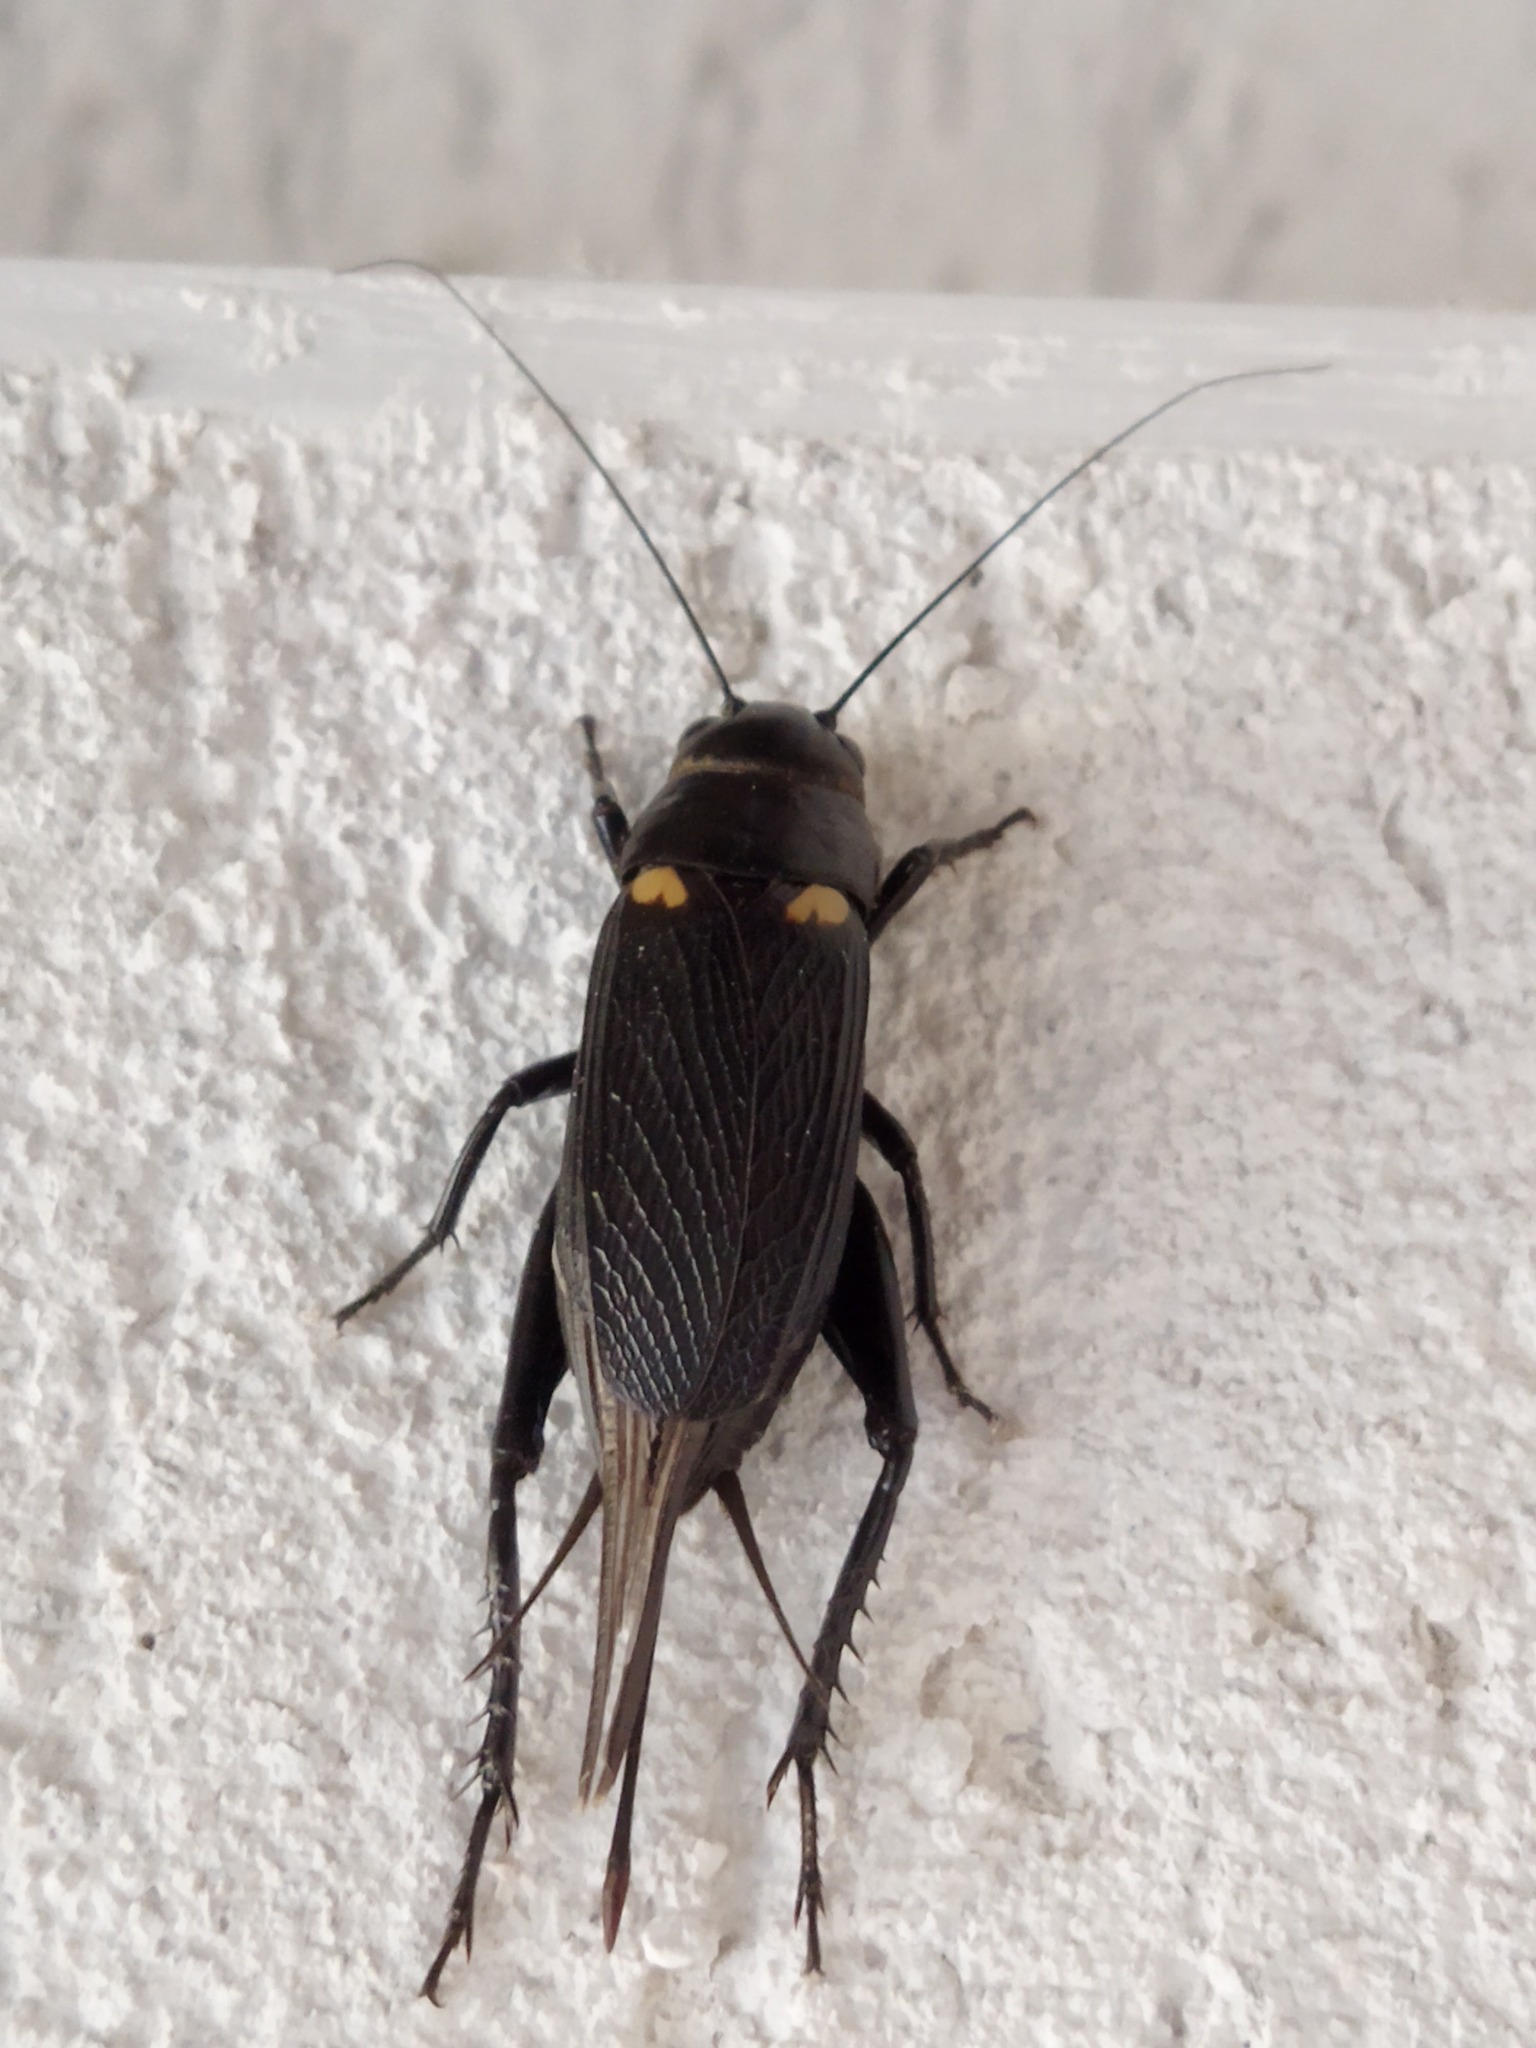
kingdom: Animalia
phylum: Arthropoda
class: Insecta
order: Orthoptera
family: Gryllidae
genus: Gryllus
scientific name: Gryllus bimaculatus
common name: Two-spotted cricket
